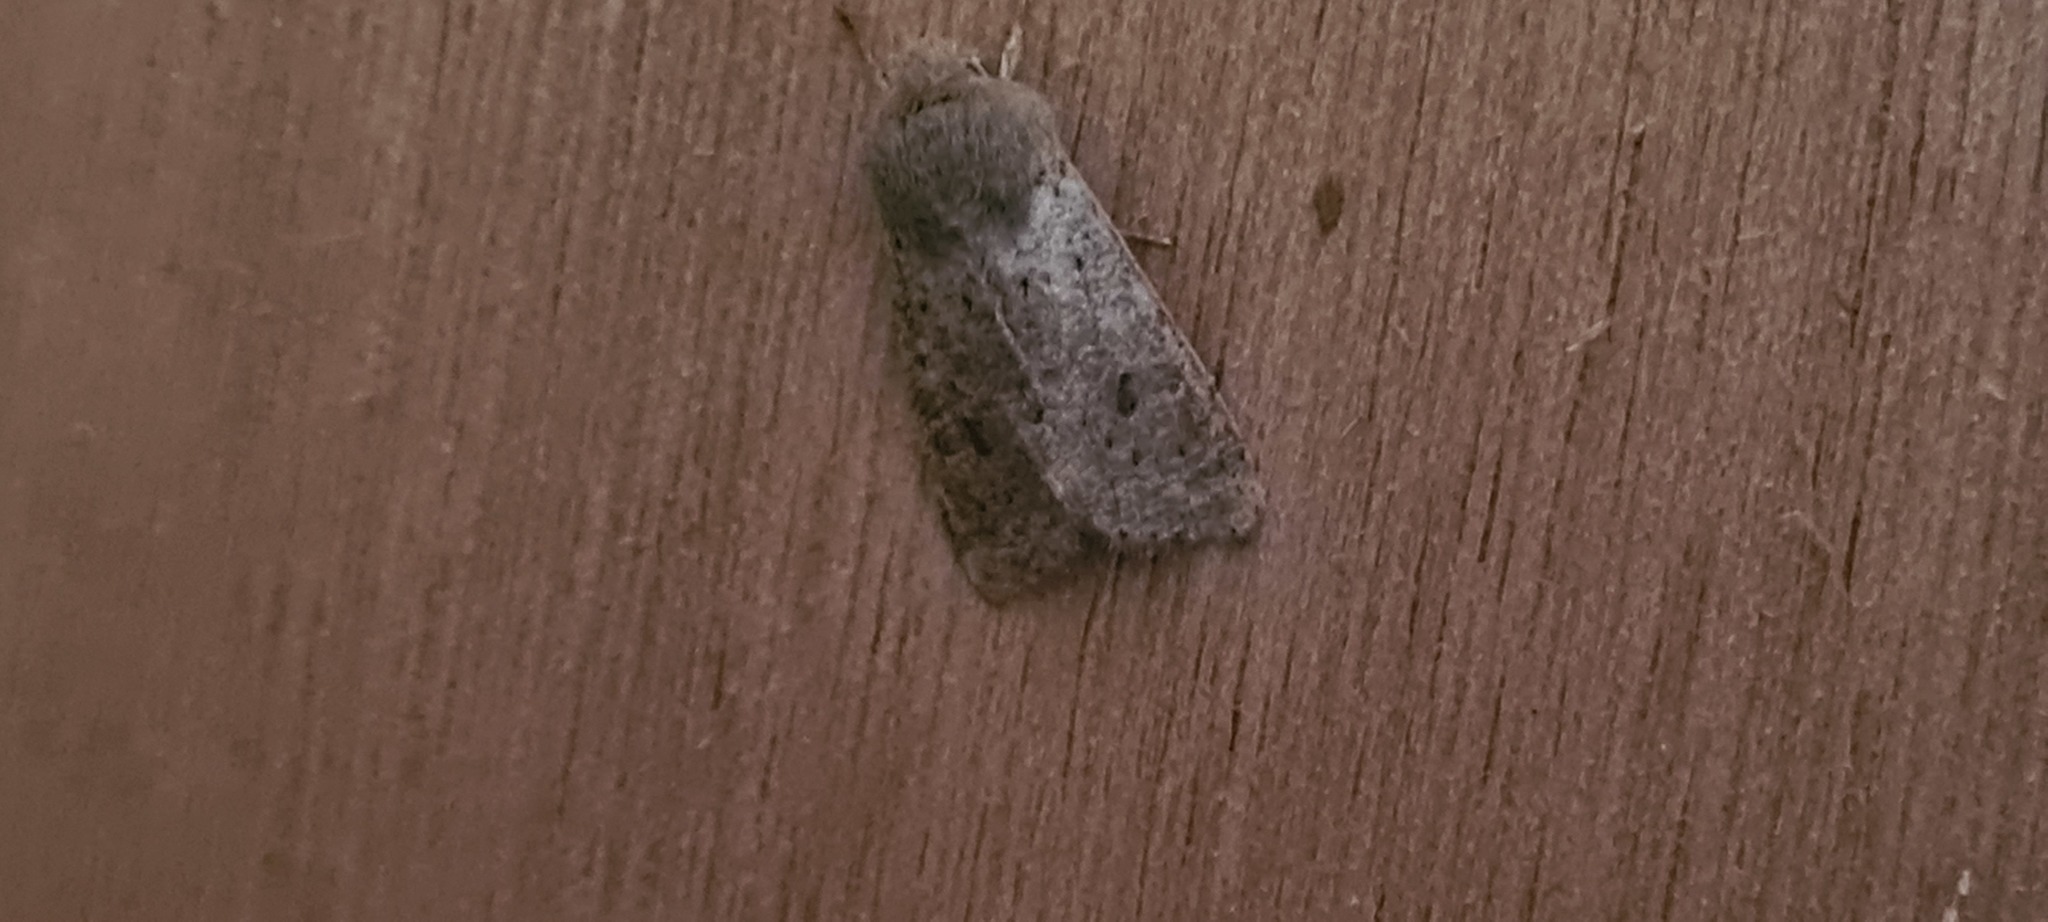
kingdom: Animalia
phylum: Arthropoda
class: Insecta
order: Lepidoptera
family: Noctuidae
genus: Orthosia
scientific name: Orthosia cruda
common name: Small quaker
